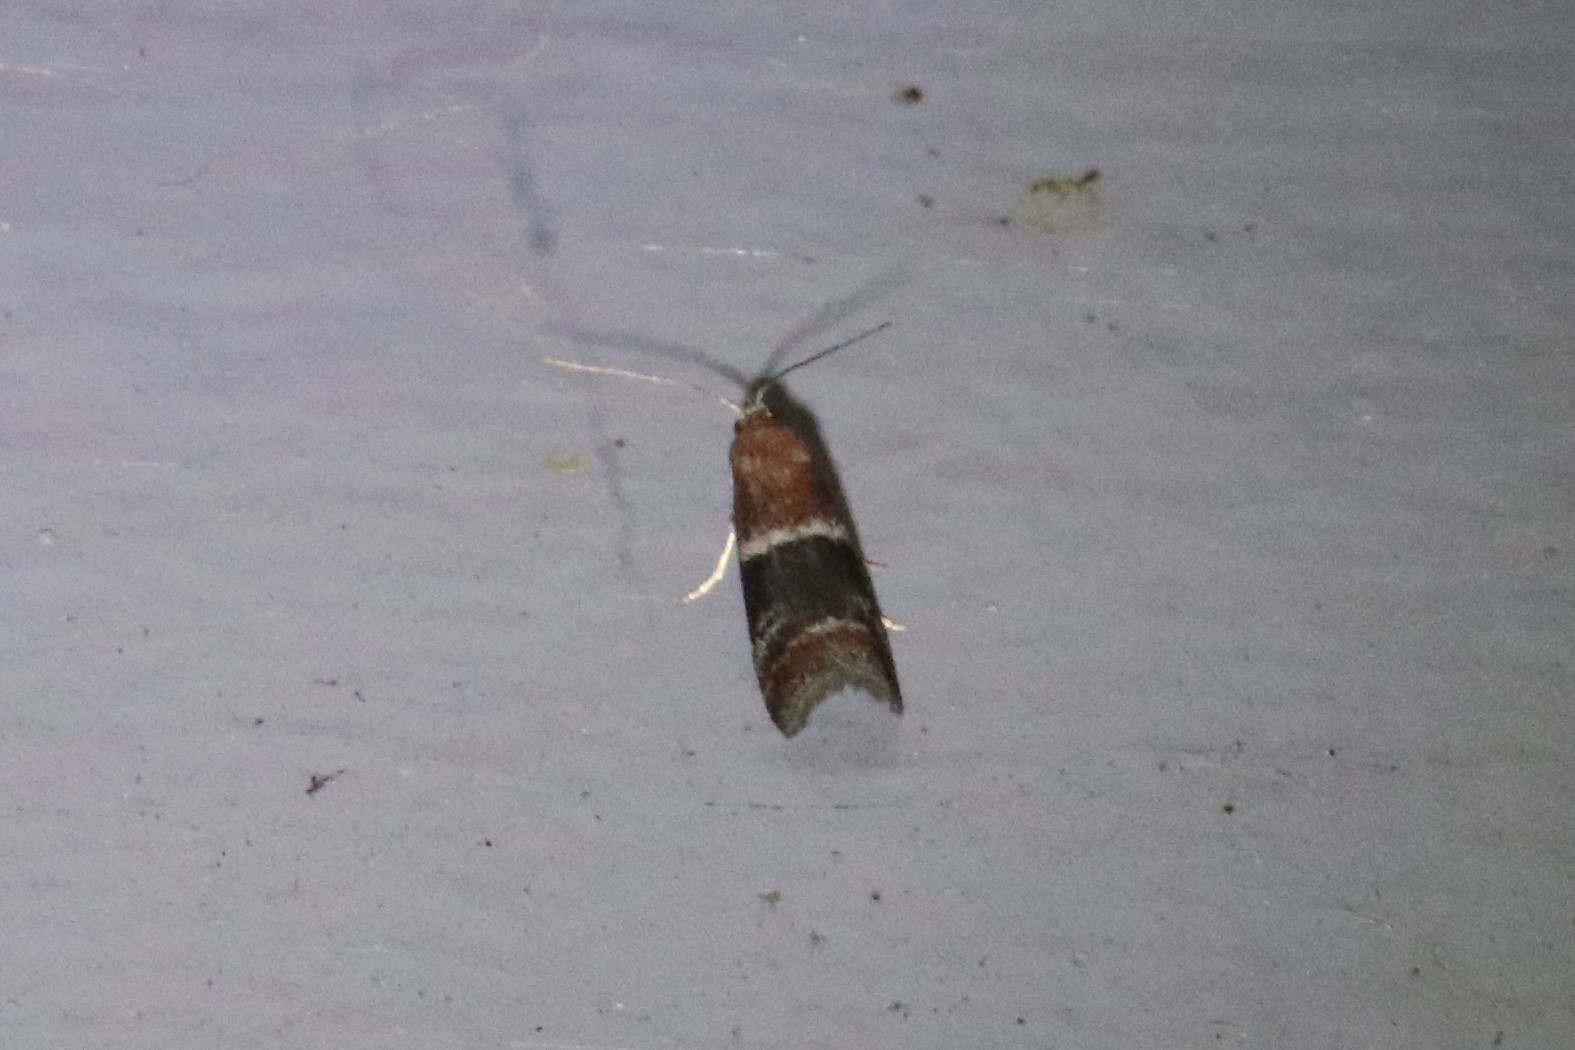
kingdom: Animalia
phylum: Arthropoda
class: Insecta
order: Lepidoptera
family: Pyralidae
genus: Moodna
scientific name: Moodna ostrinella
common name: Darker moodna moth
